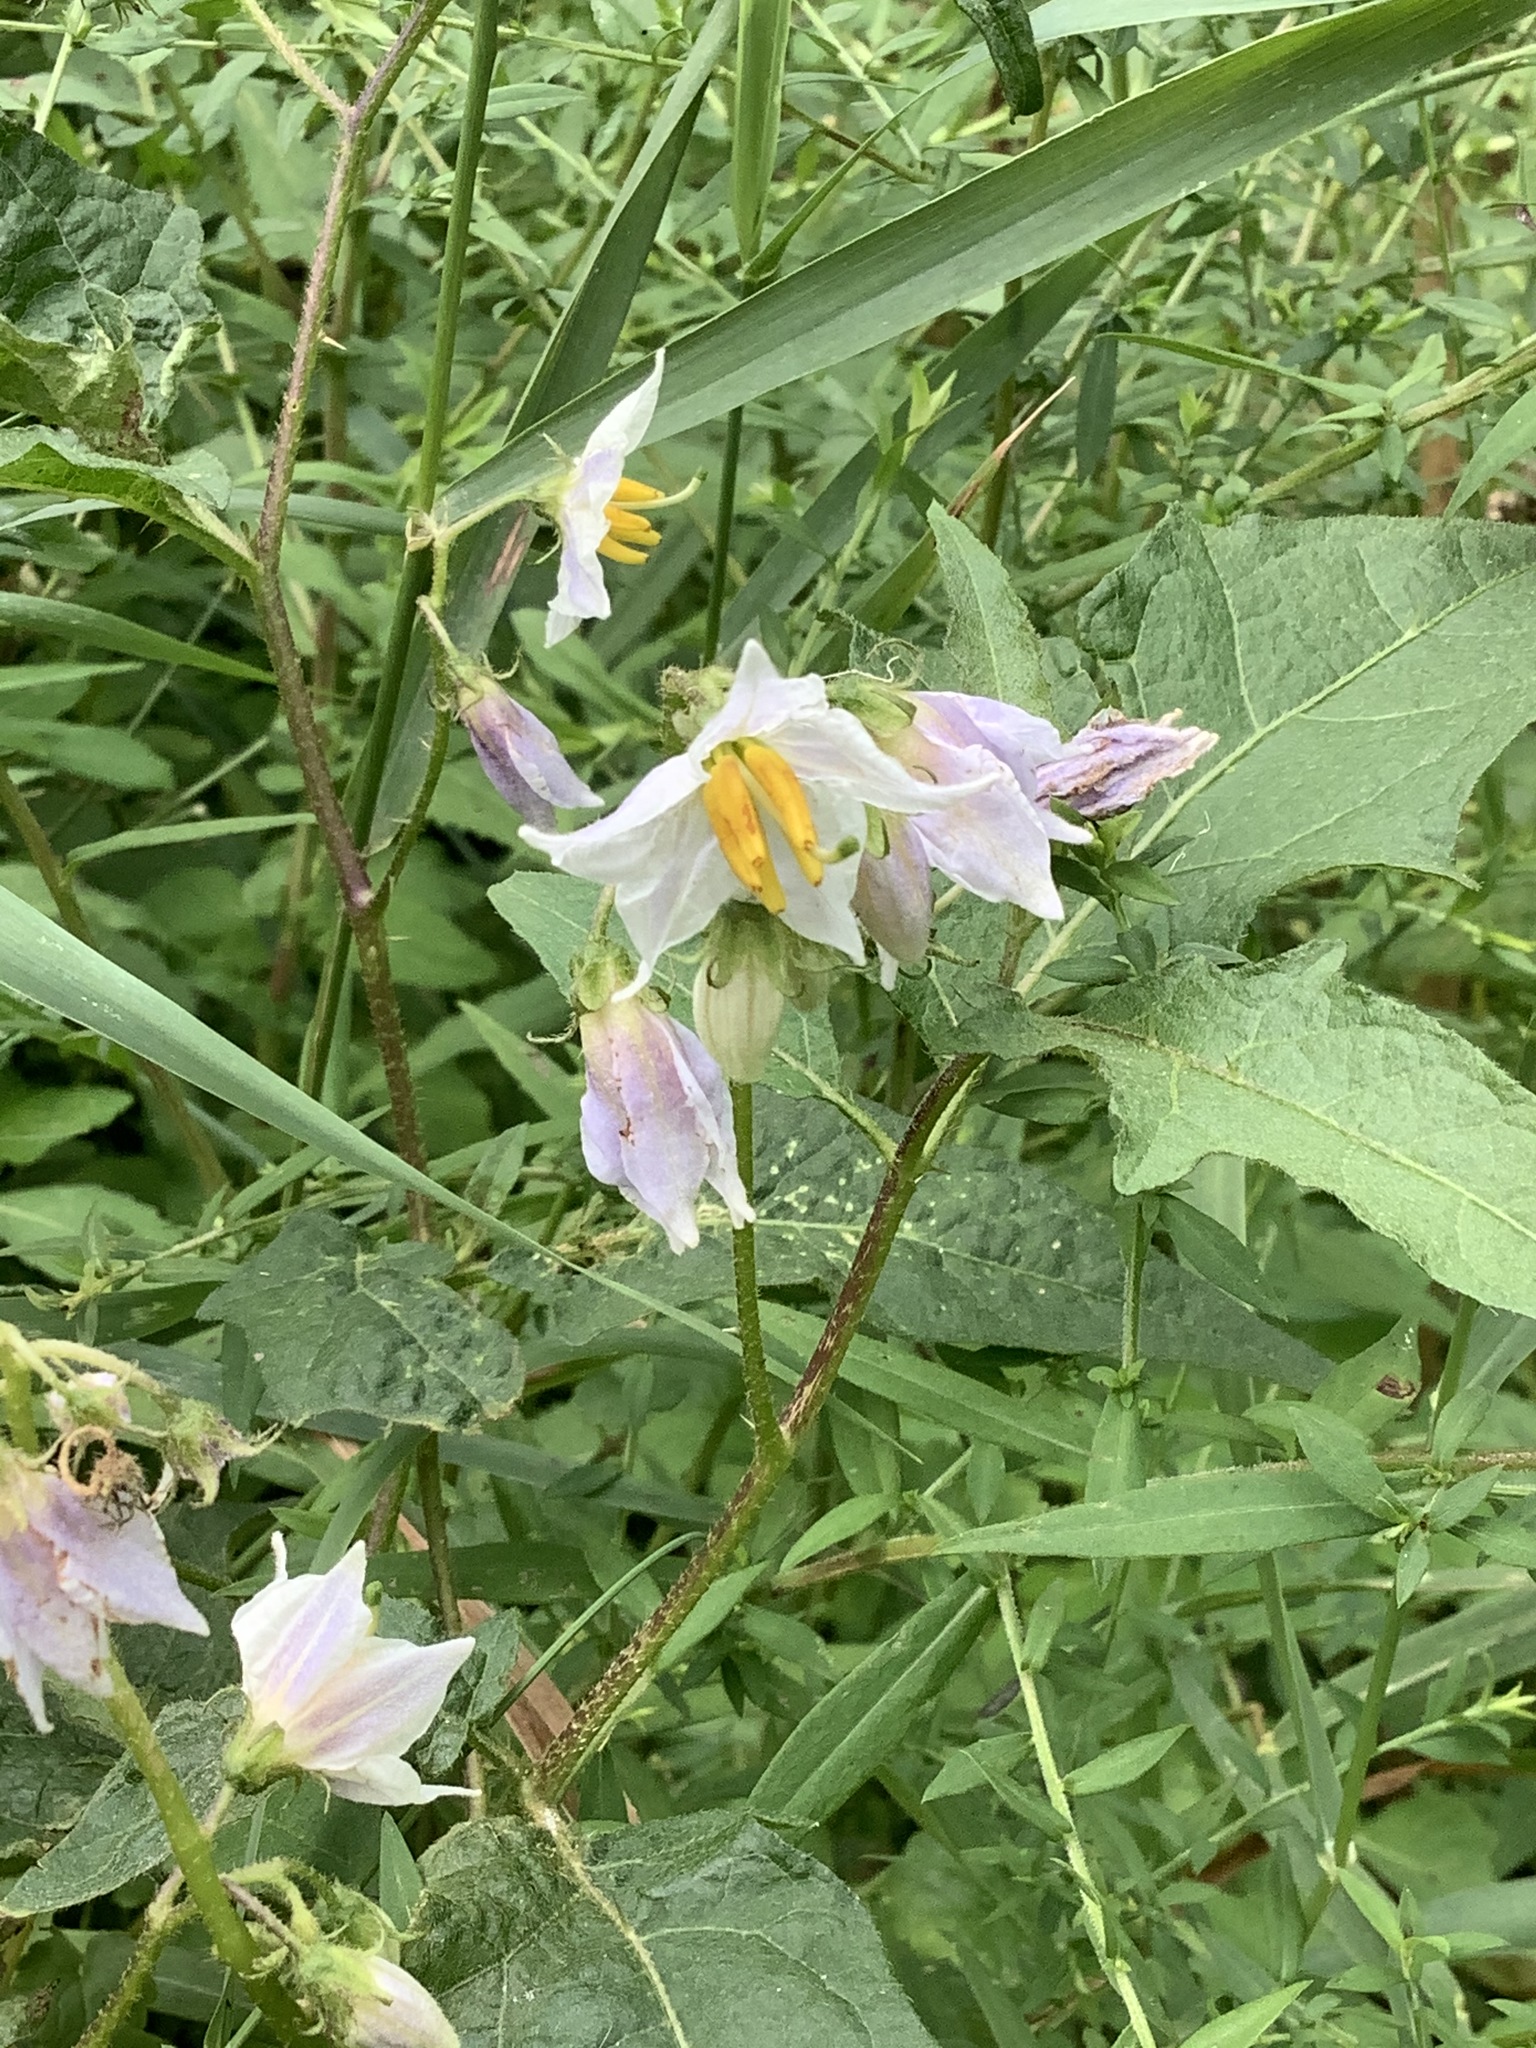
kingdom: Plantae
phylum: Tracheophyta
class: Magnoliopsida
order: Solanales
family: Solanaceae
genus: Solanum
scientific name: Solanum carolinense
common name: Horse-nettle
